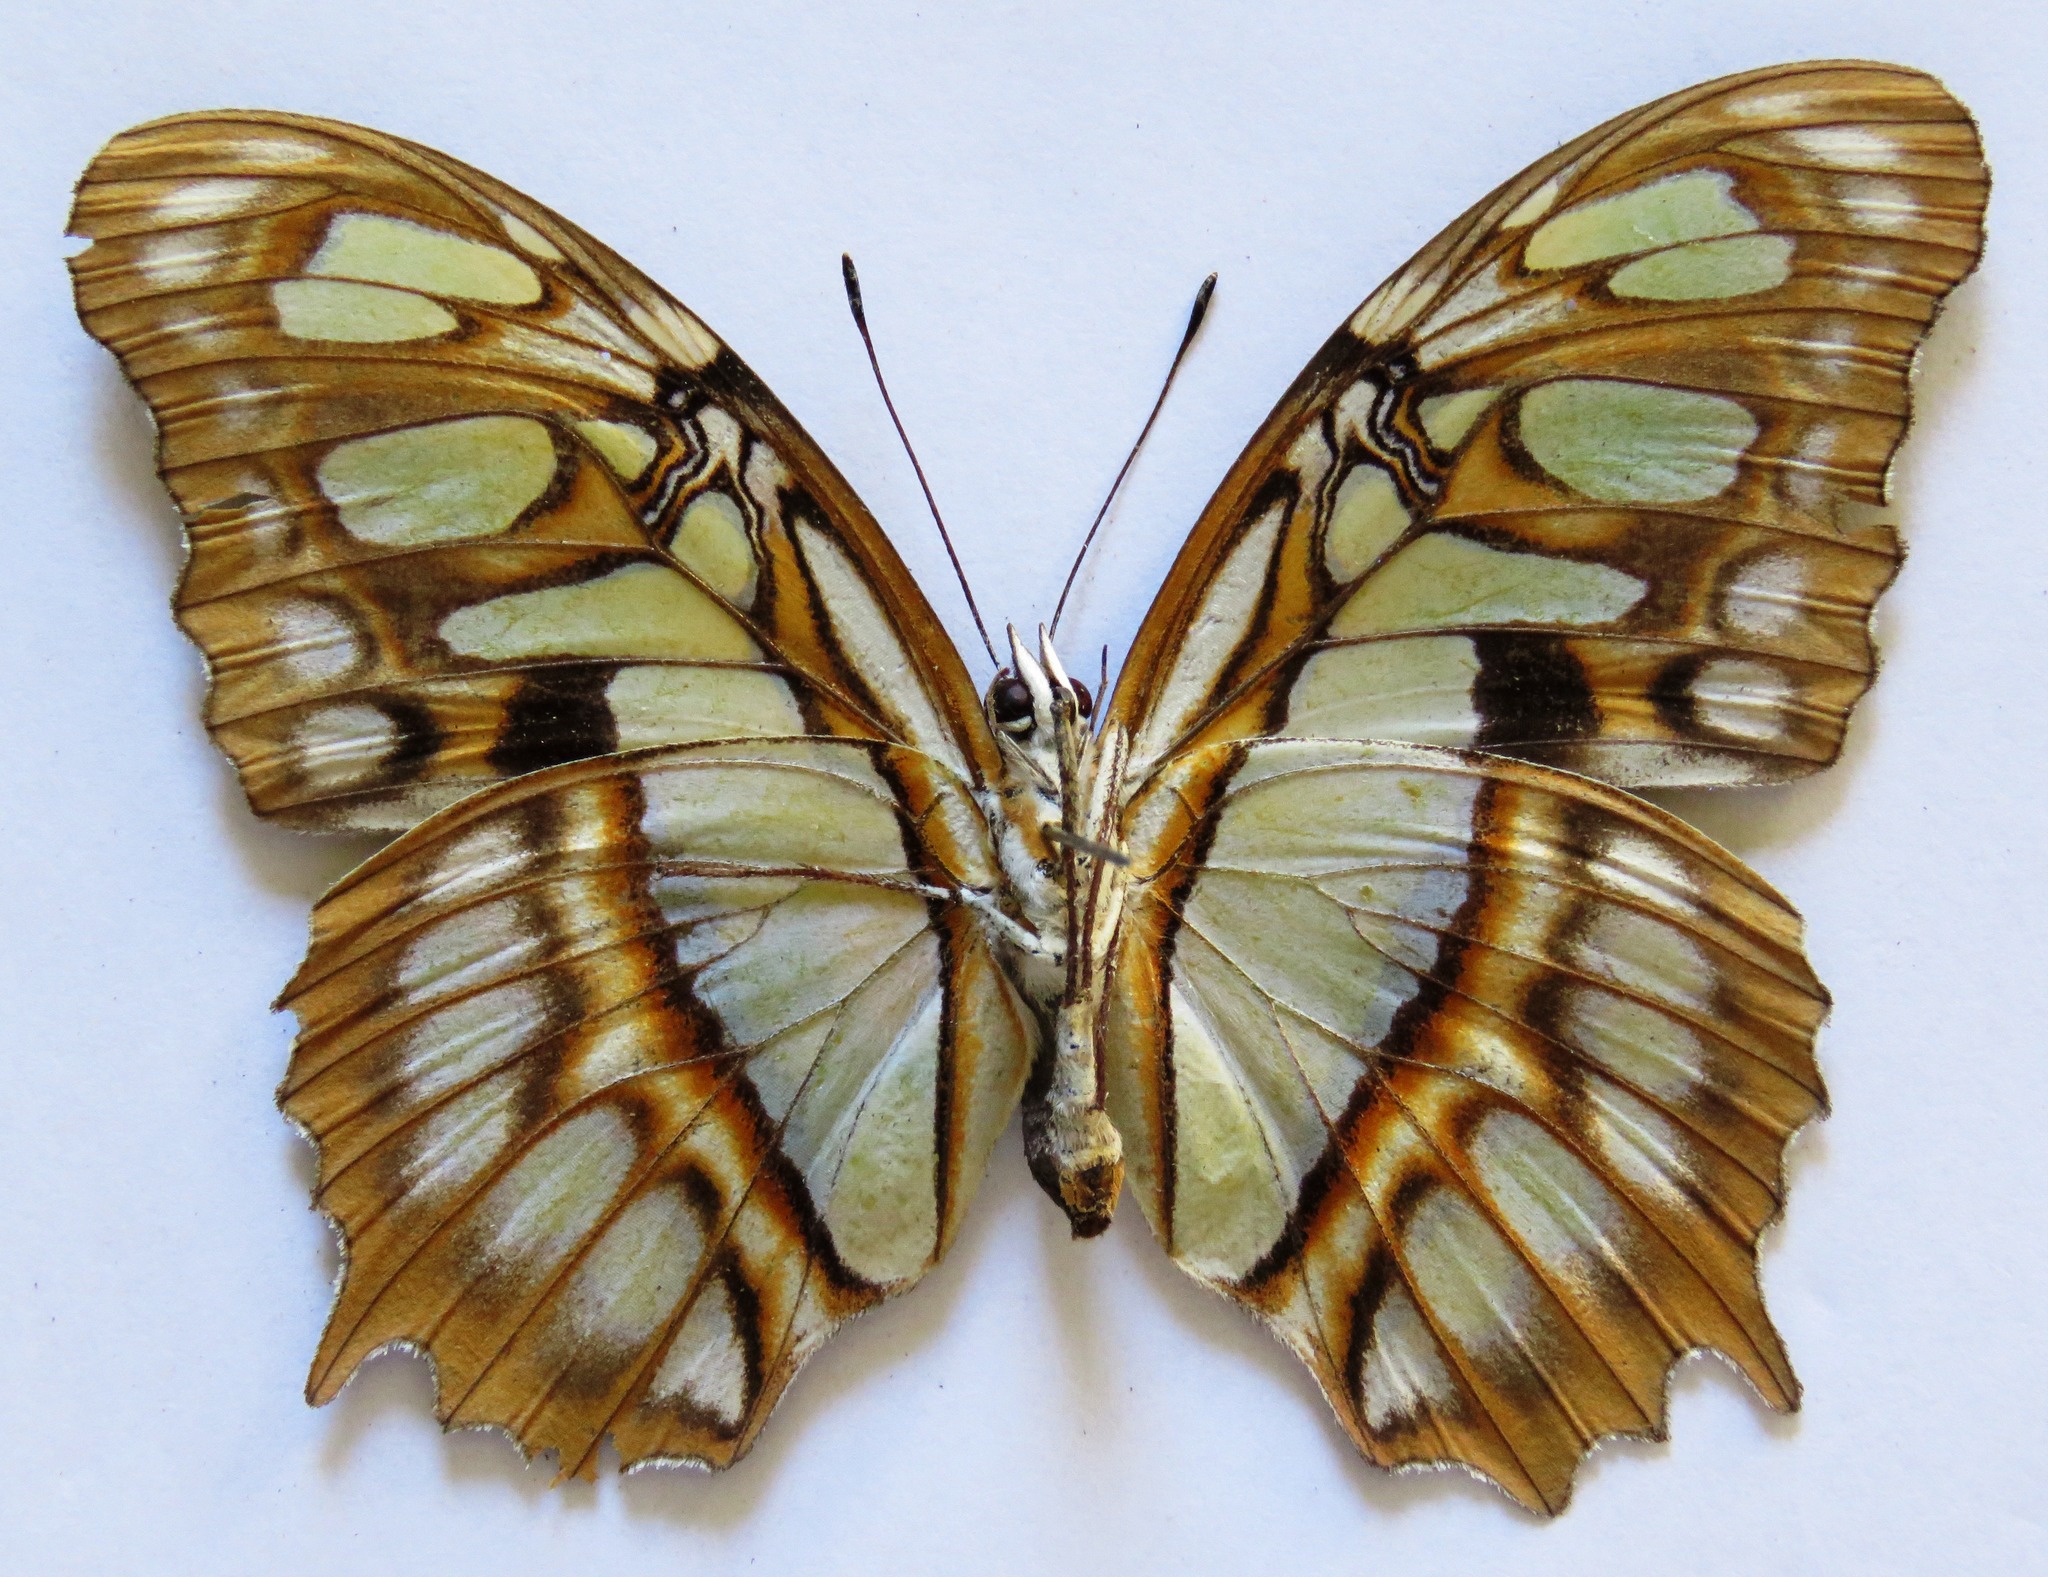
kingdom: Animalia
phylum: Arthropoda
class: Insecta
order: Lepidoptera
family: Nymphalidae
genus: Siproeta
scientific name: Siproeta stelenes
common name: Malachite
